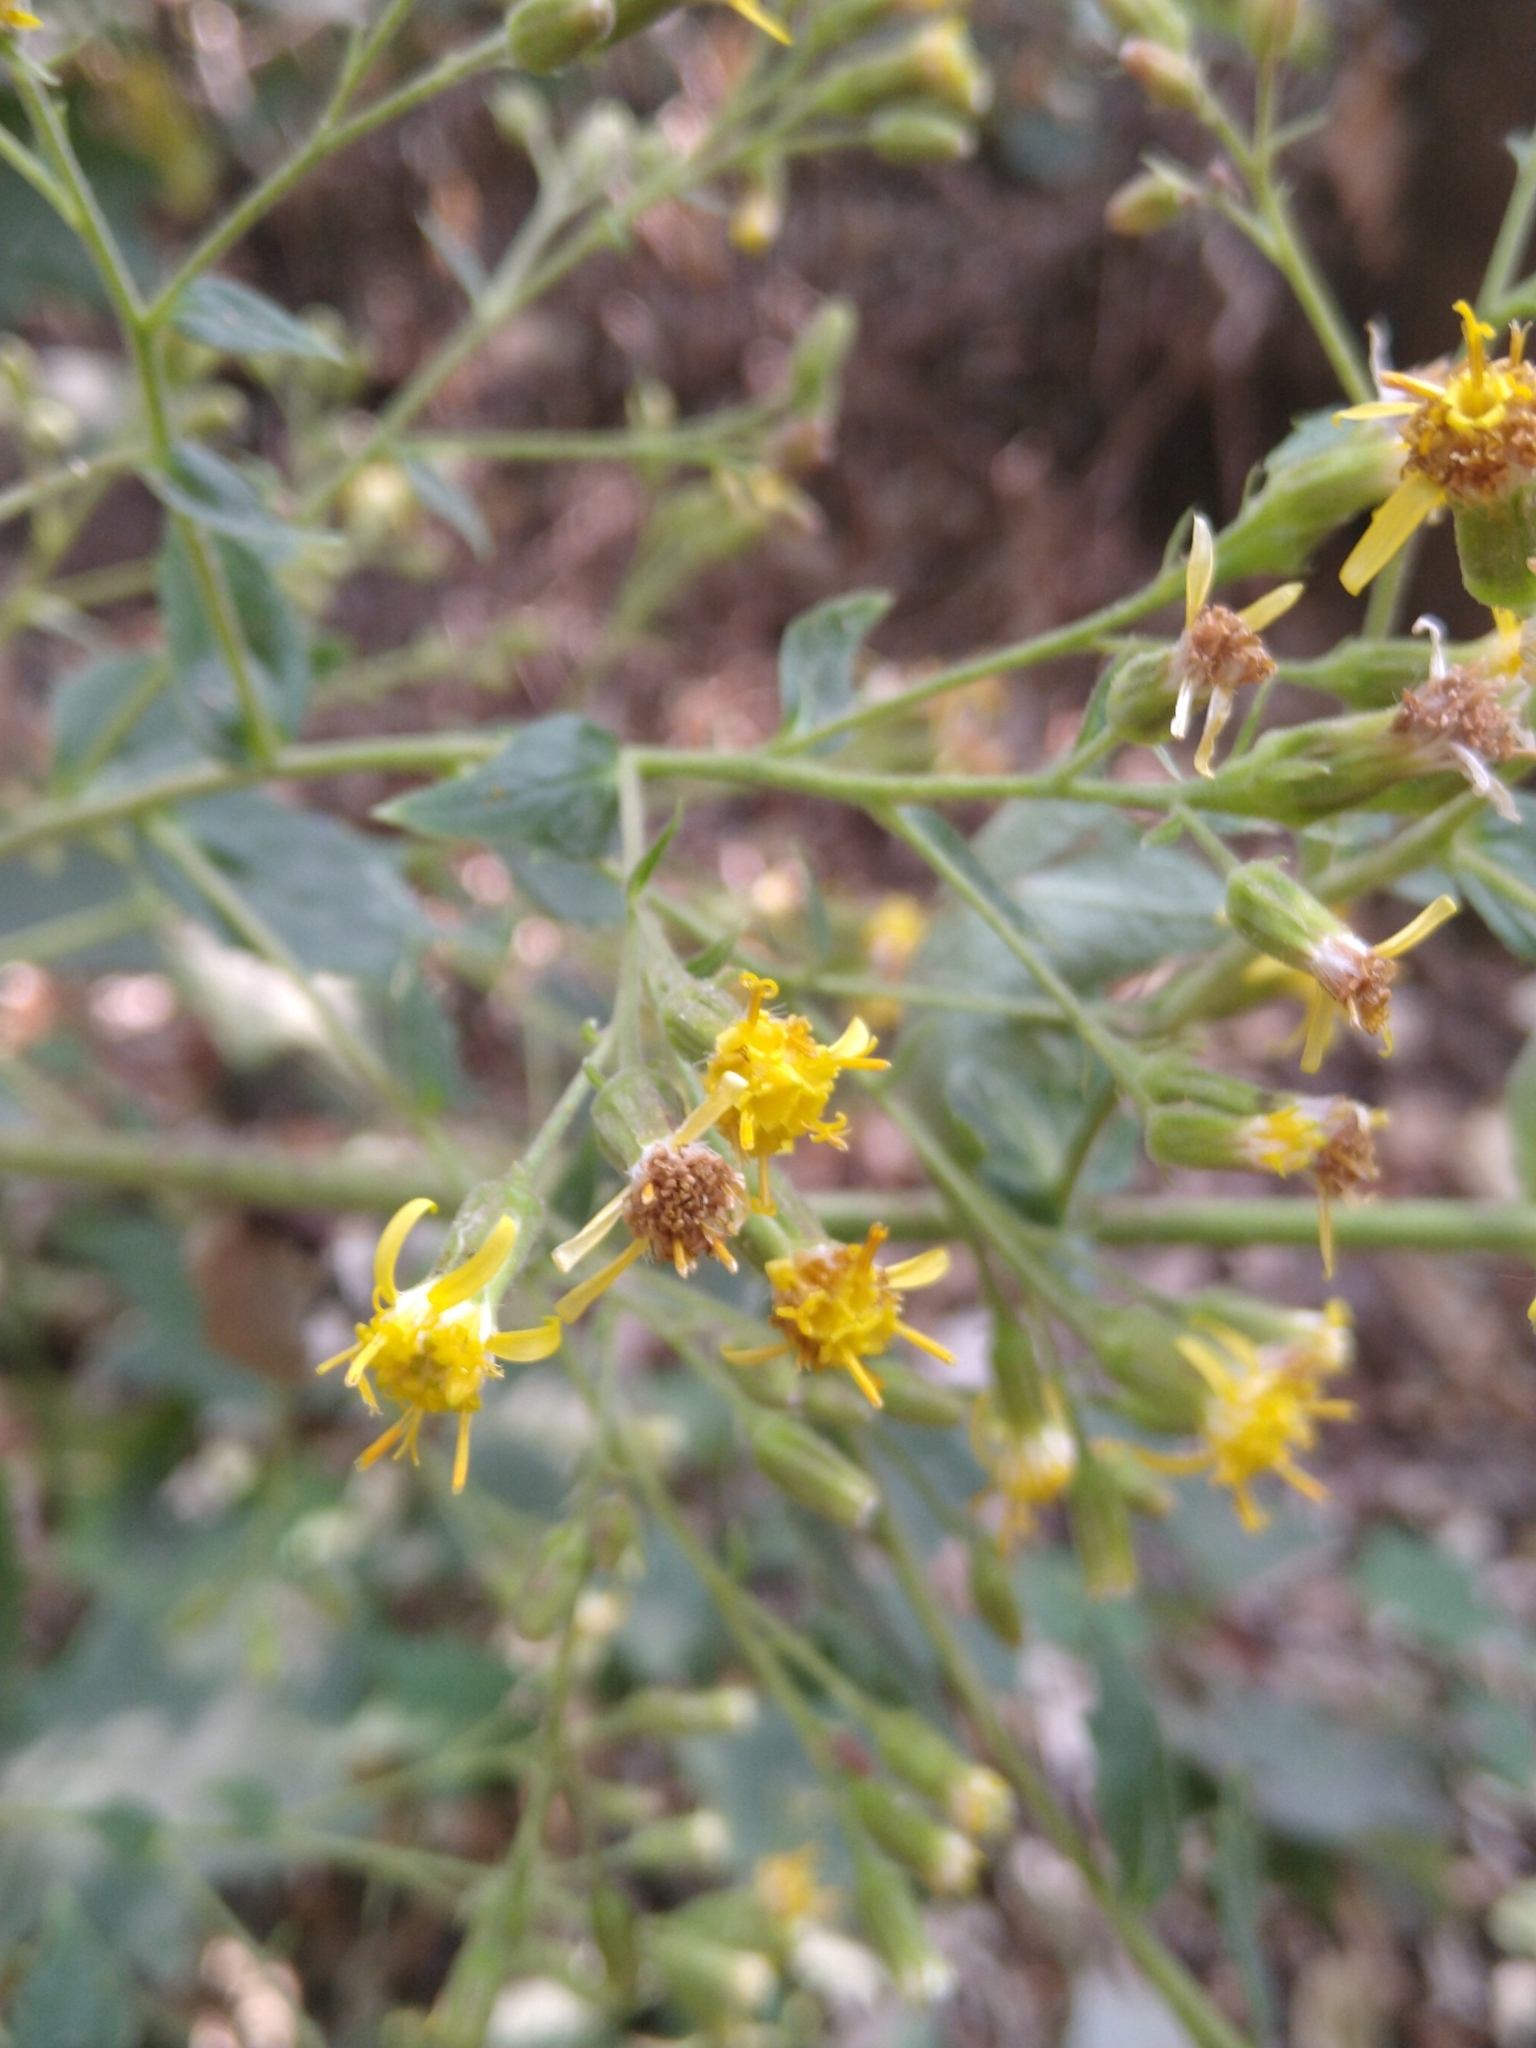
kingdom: Plantae
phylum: Tracheophyta
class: Magnoliopsida
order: Asterales
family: Asteraceae
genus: Roldana
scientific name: Roldana angulifolia
